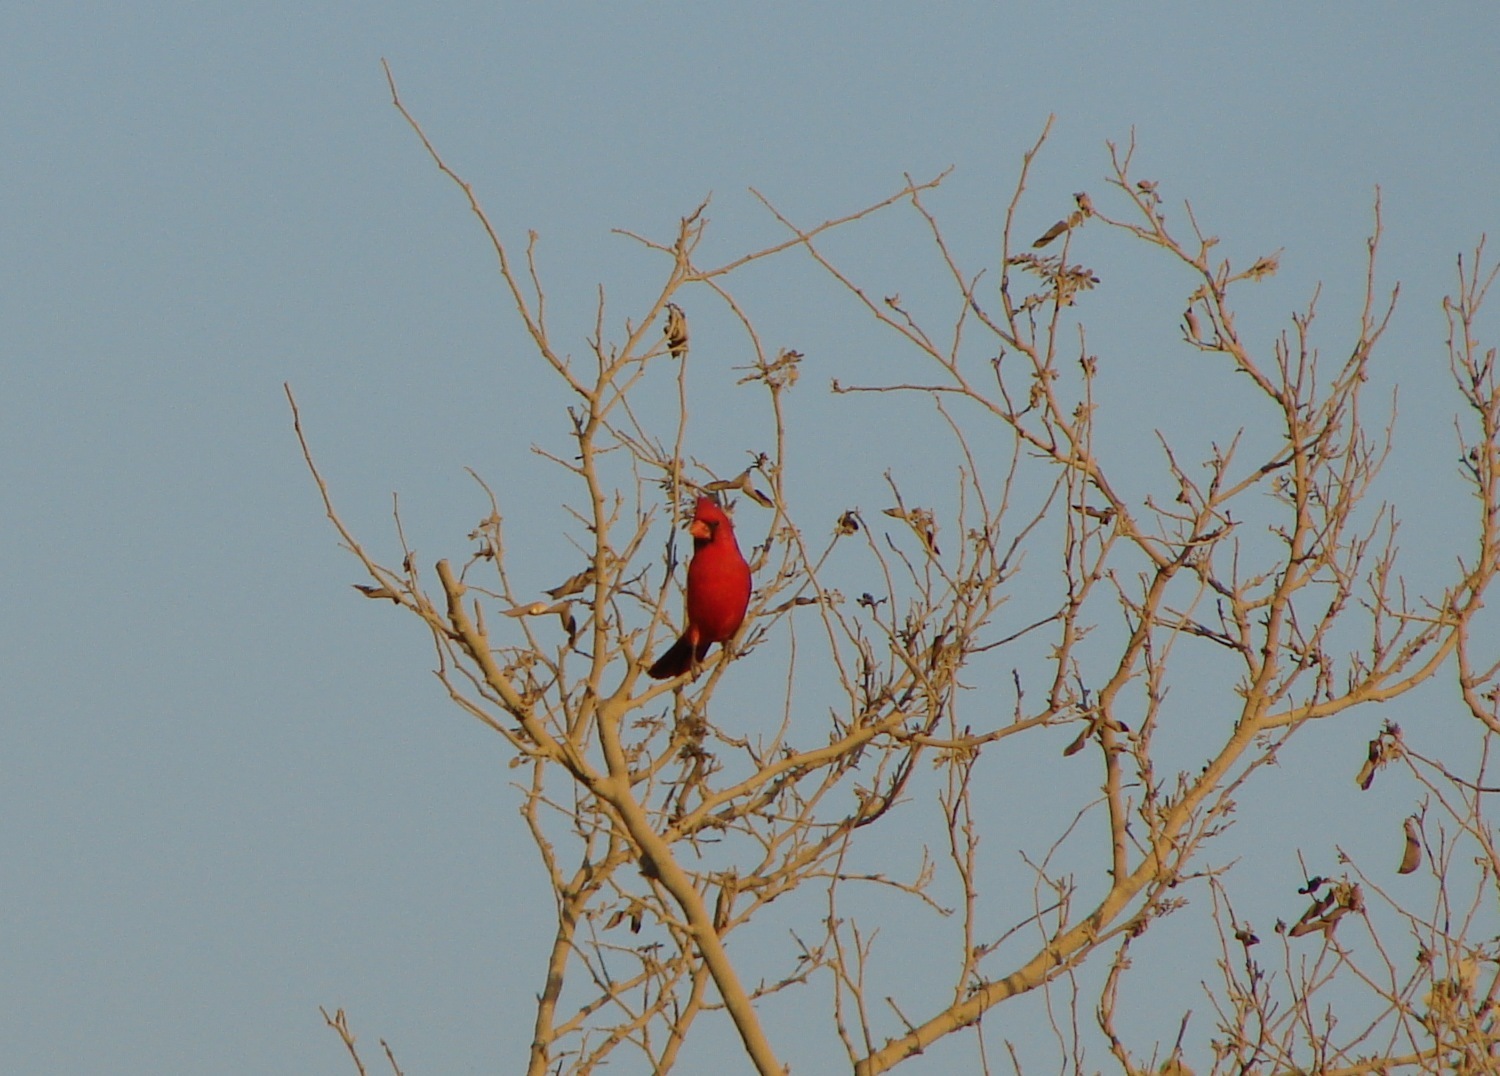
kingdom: Animalia
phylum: Chordata
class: Aves
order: Passeriformes
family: Cardinalidae
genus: Cardinalis
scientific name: Cardinalis cardinalis
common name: Northern cardinal
